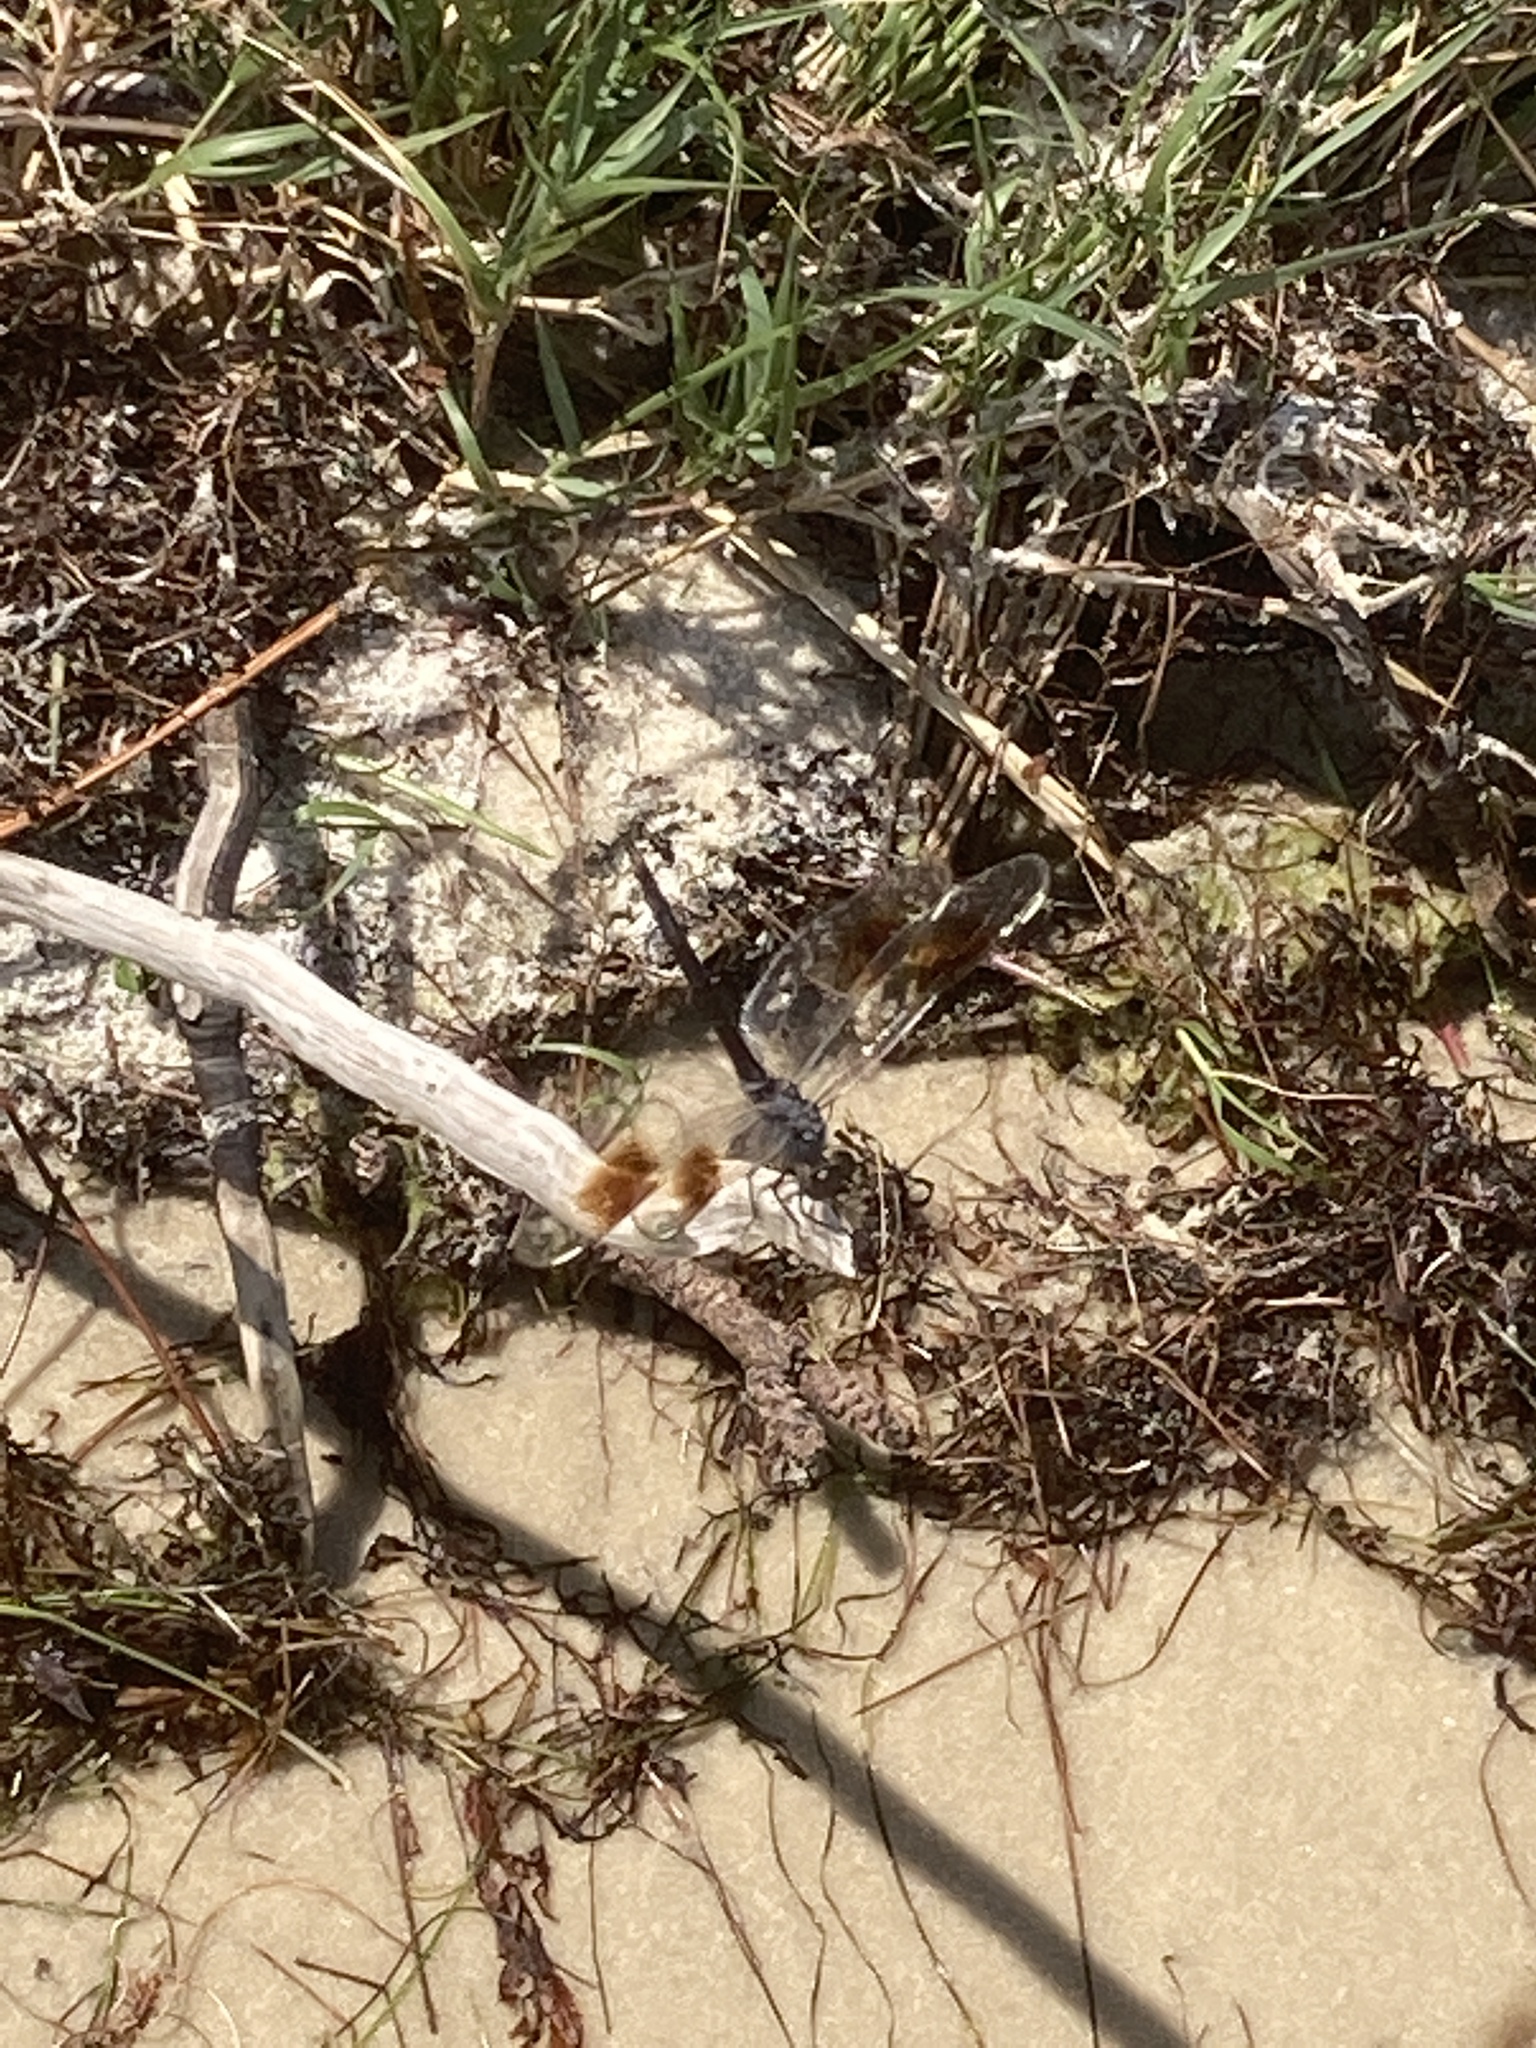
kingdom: Animalia
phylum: Arthropoda
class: Insecta
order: Odonata
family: Libellulidae
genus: Brachymesia
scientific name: Brachymesia gravida
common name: Four-spotted pennant
